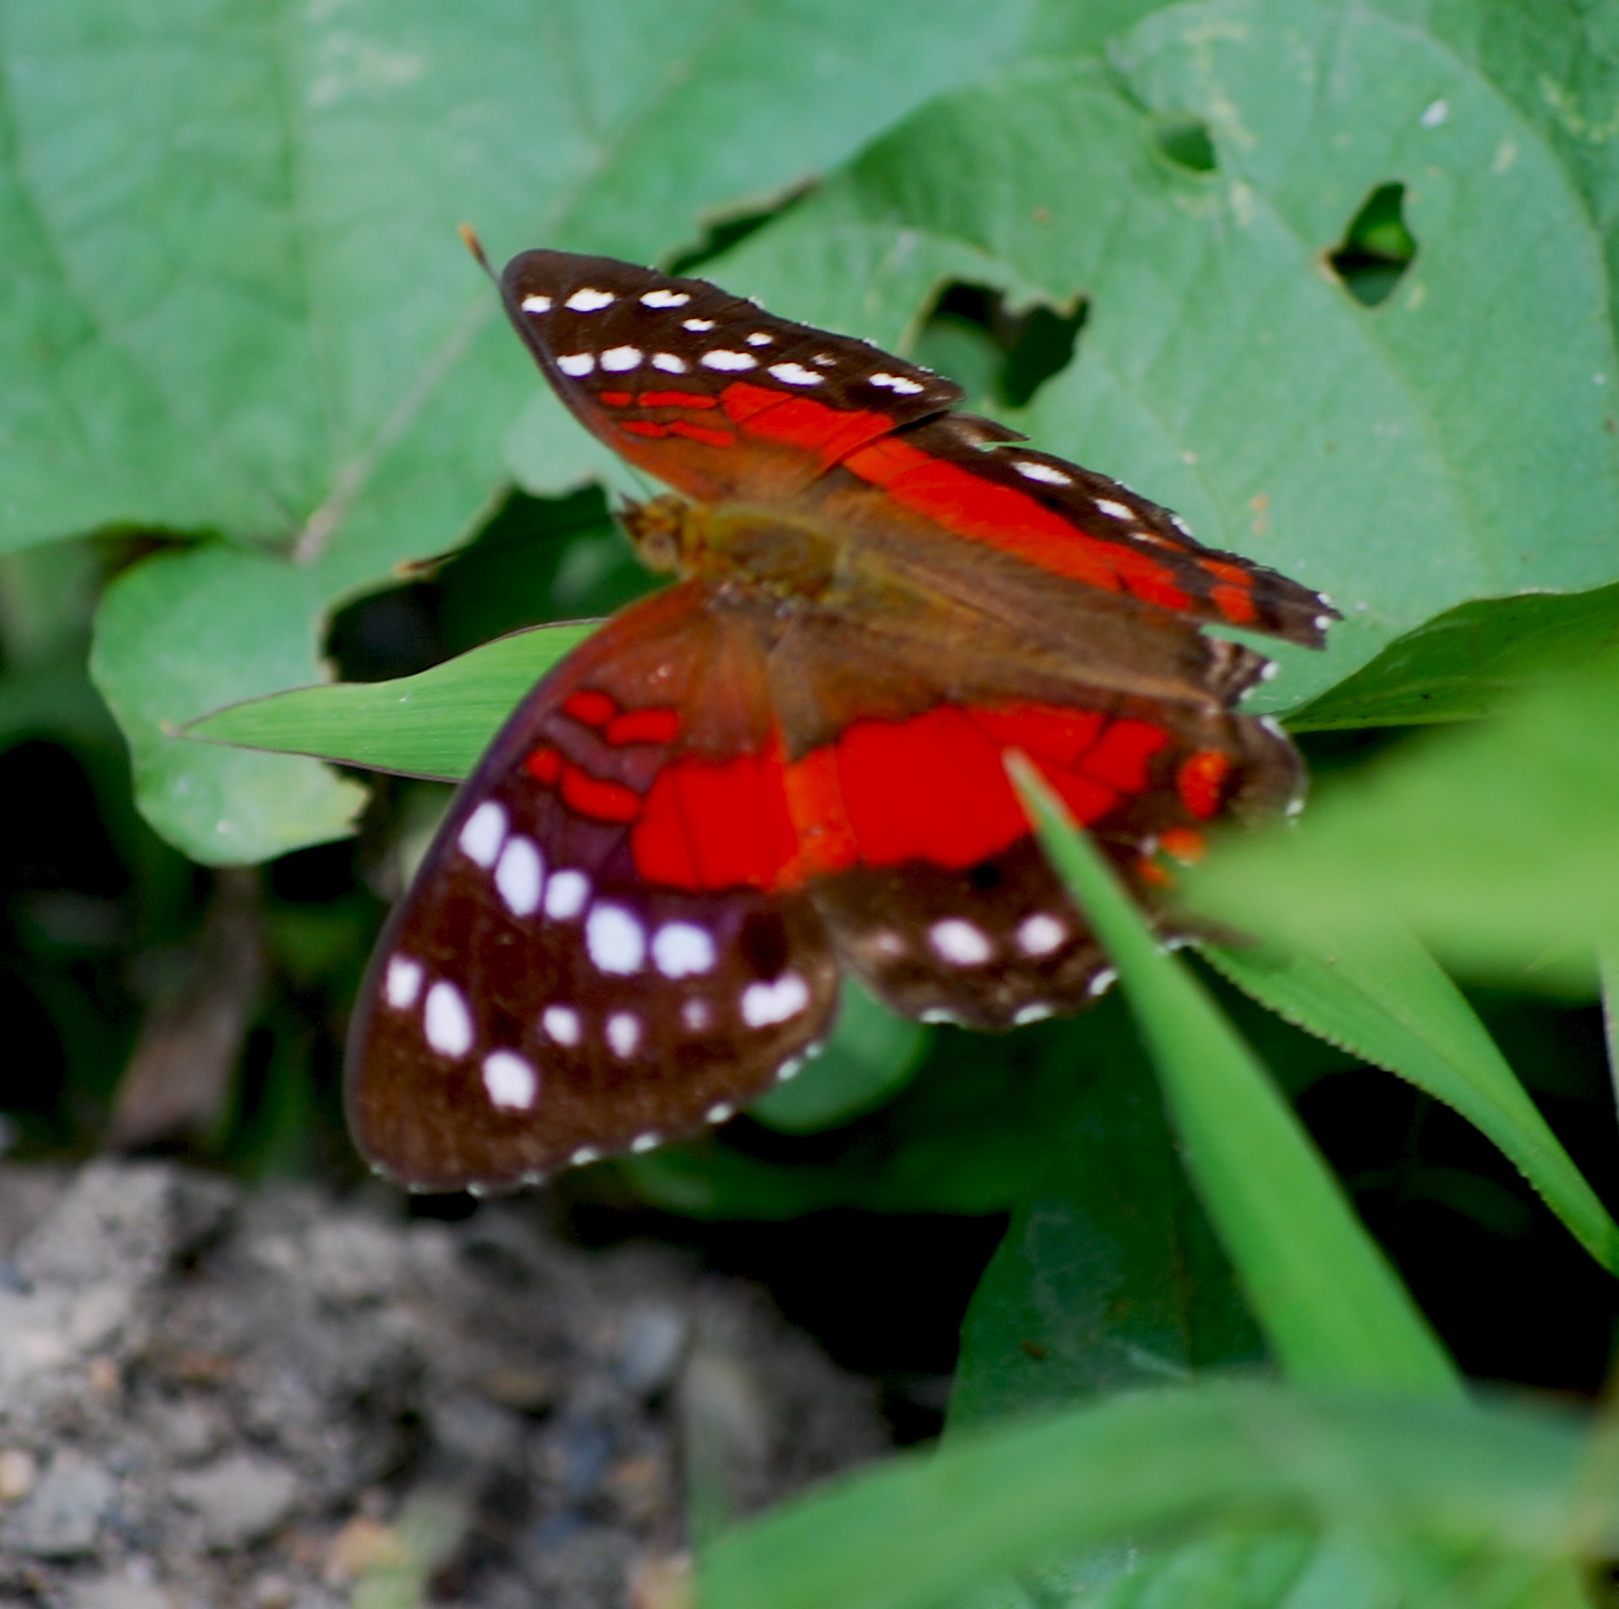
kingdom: Animalia
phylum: Arthropoda
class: Insecta
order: Lepidoptera
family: Nymphalidae
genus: Anartia
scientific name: Anartia amathea
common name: Red peacock
